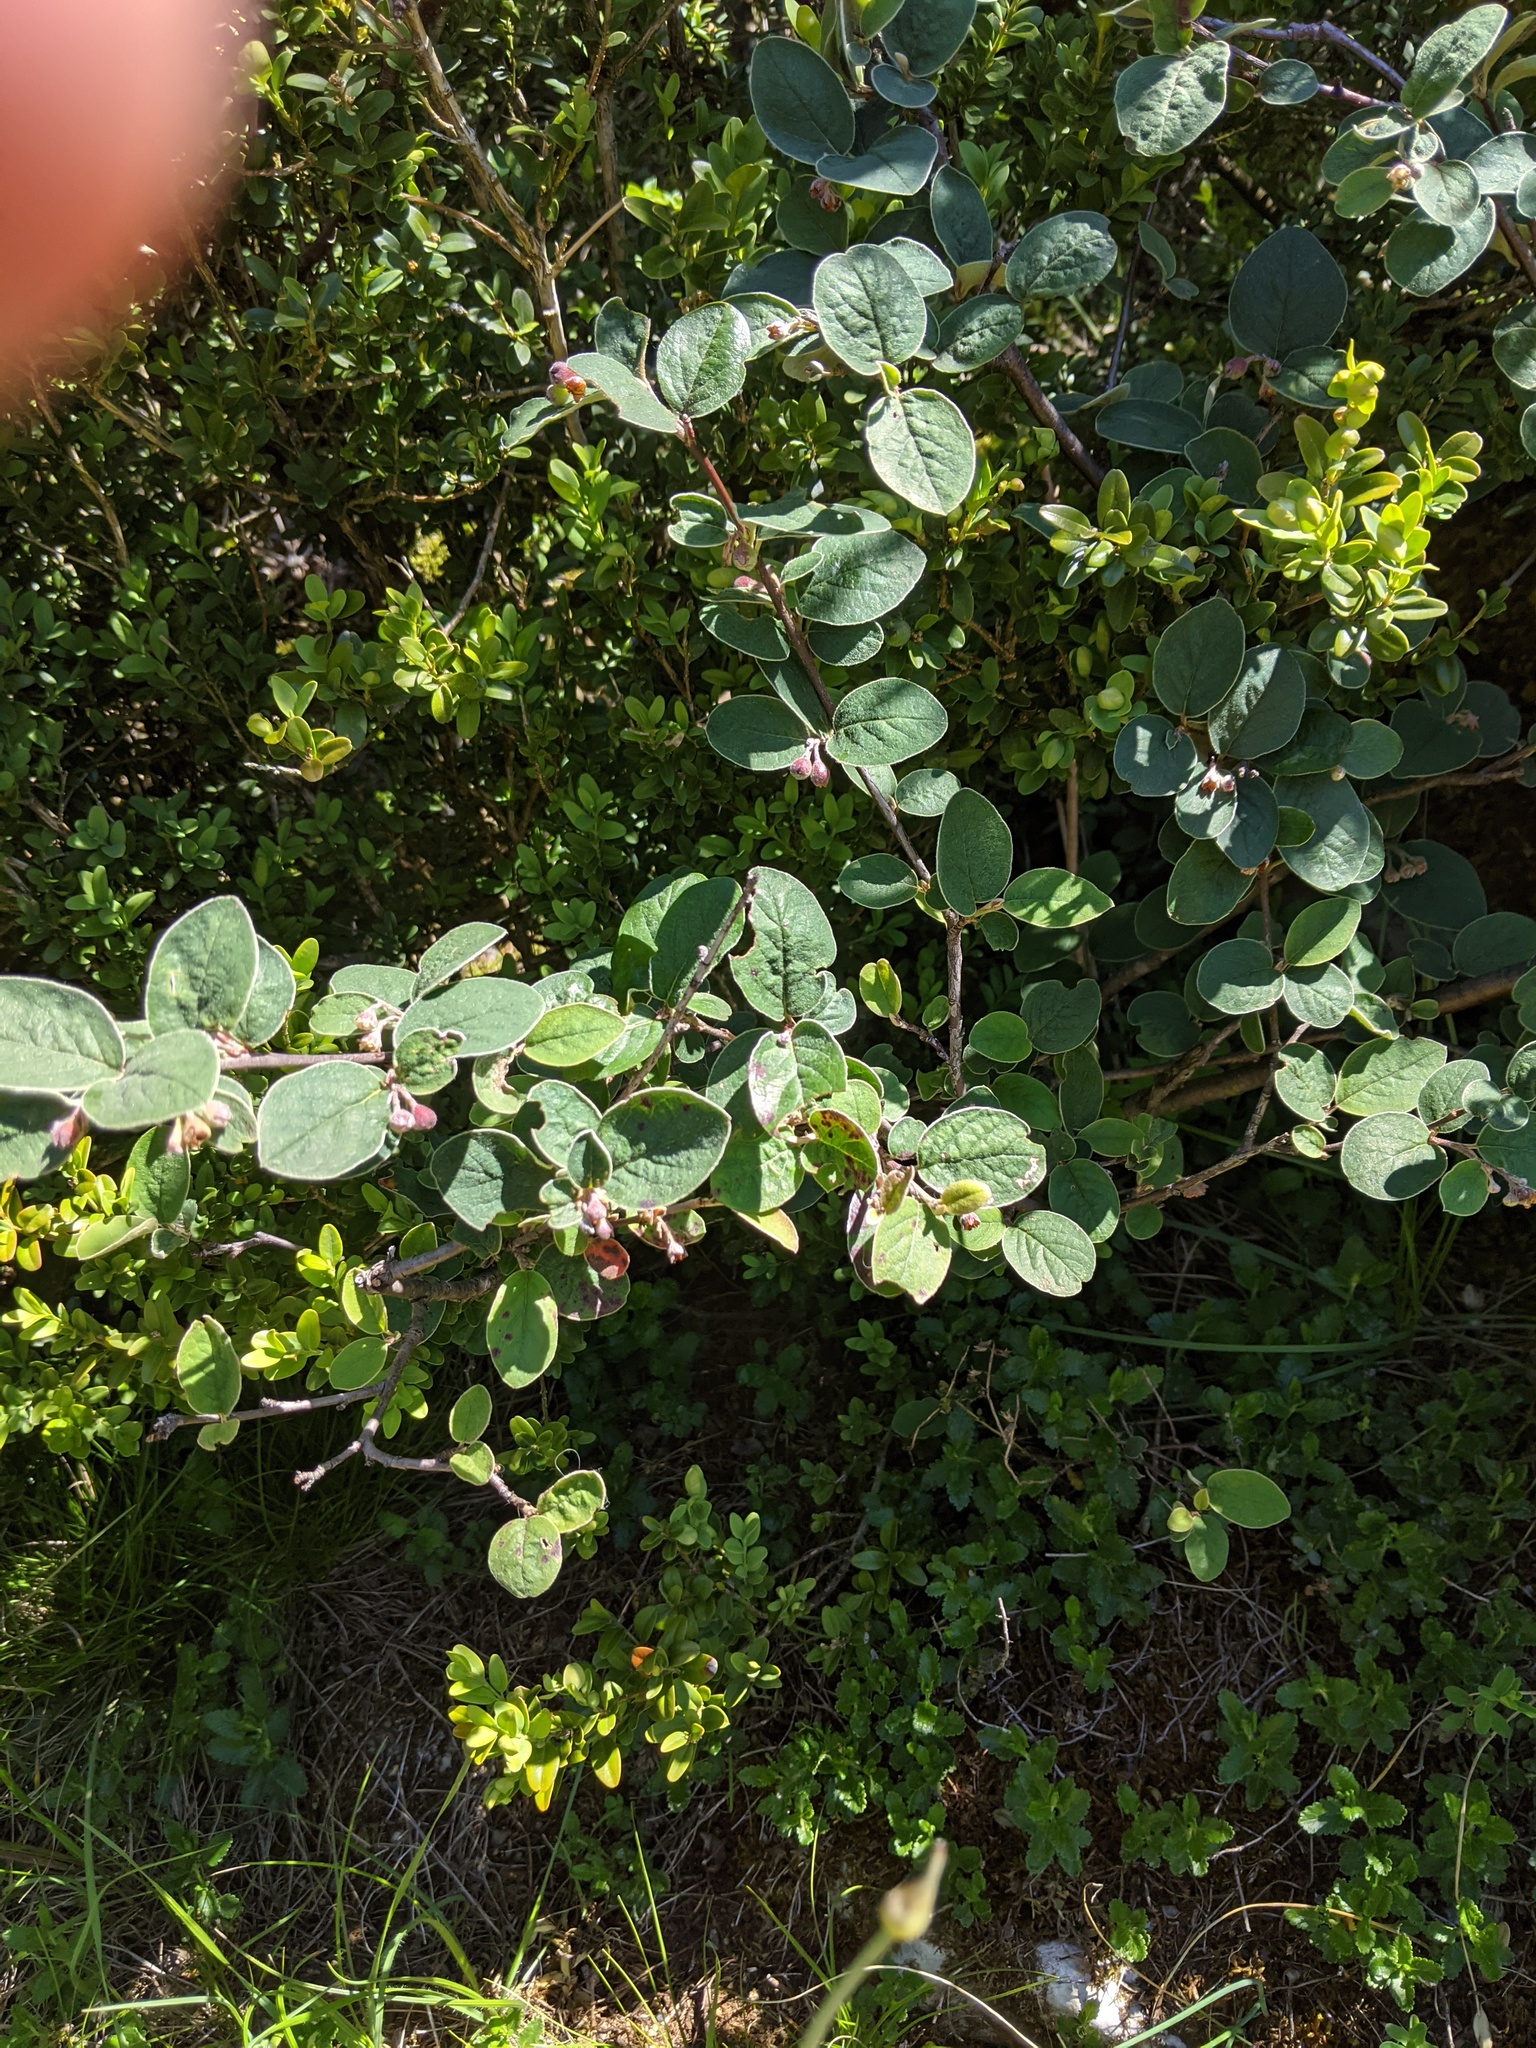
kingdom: Plantae
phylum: Tracheophyta
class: Magnoliopsida
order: Rosales
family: Rosaceae
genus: Cotoneaster
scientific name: Cotoneaster tomentosus
